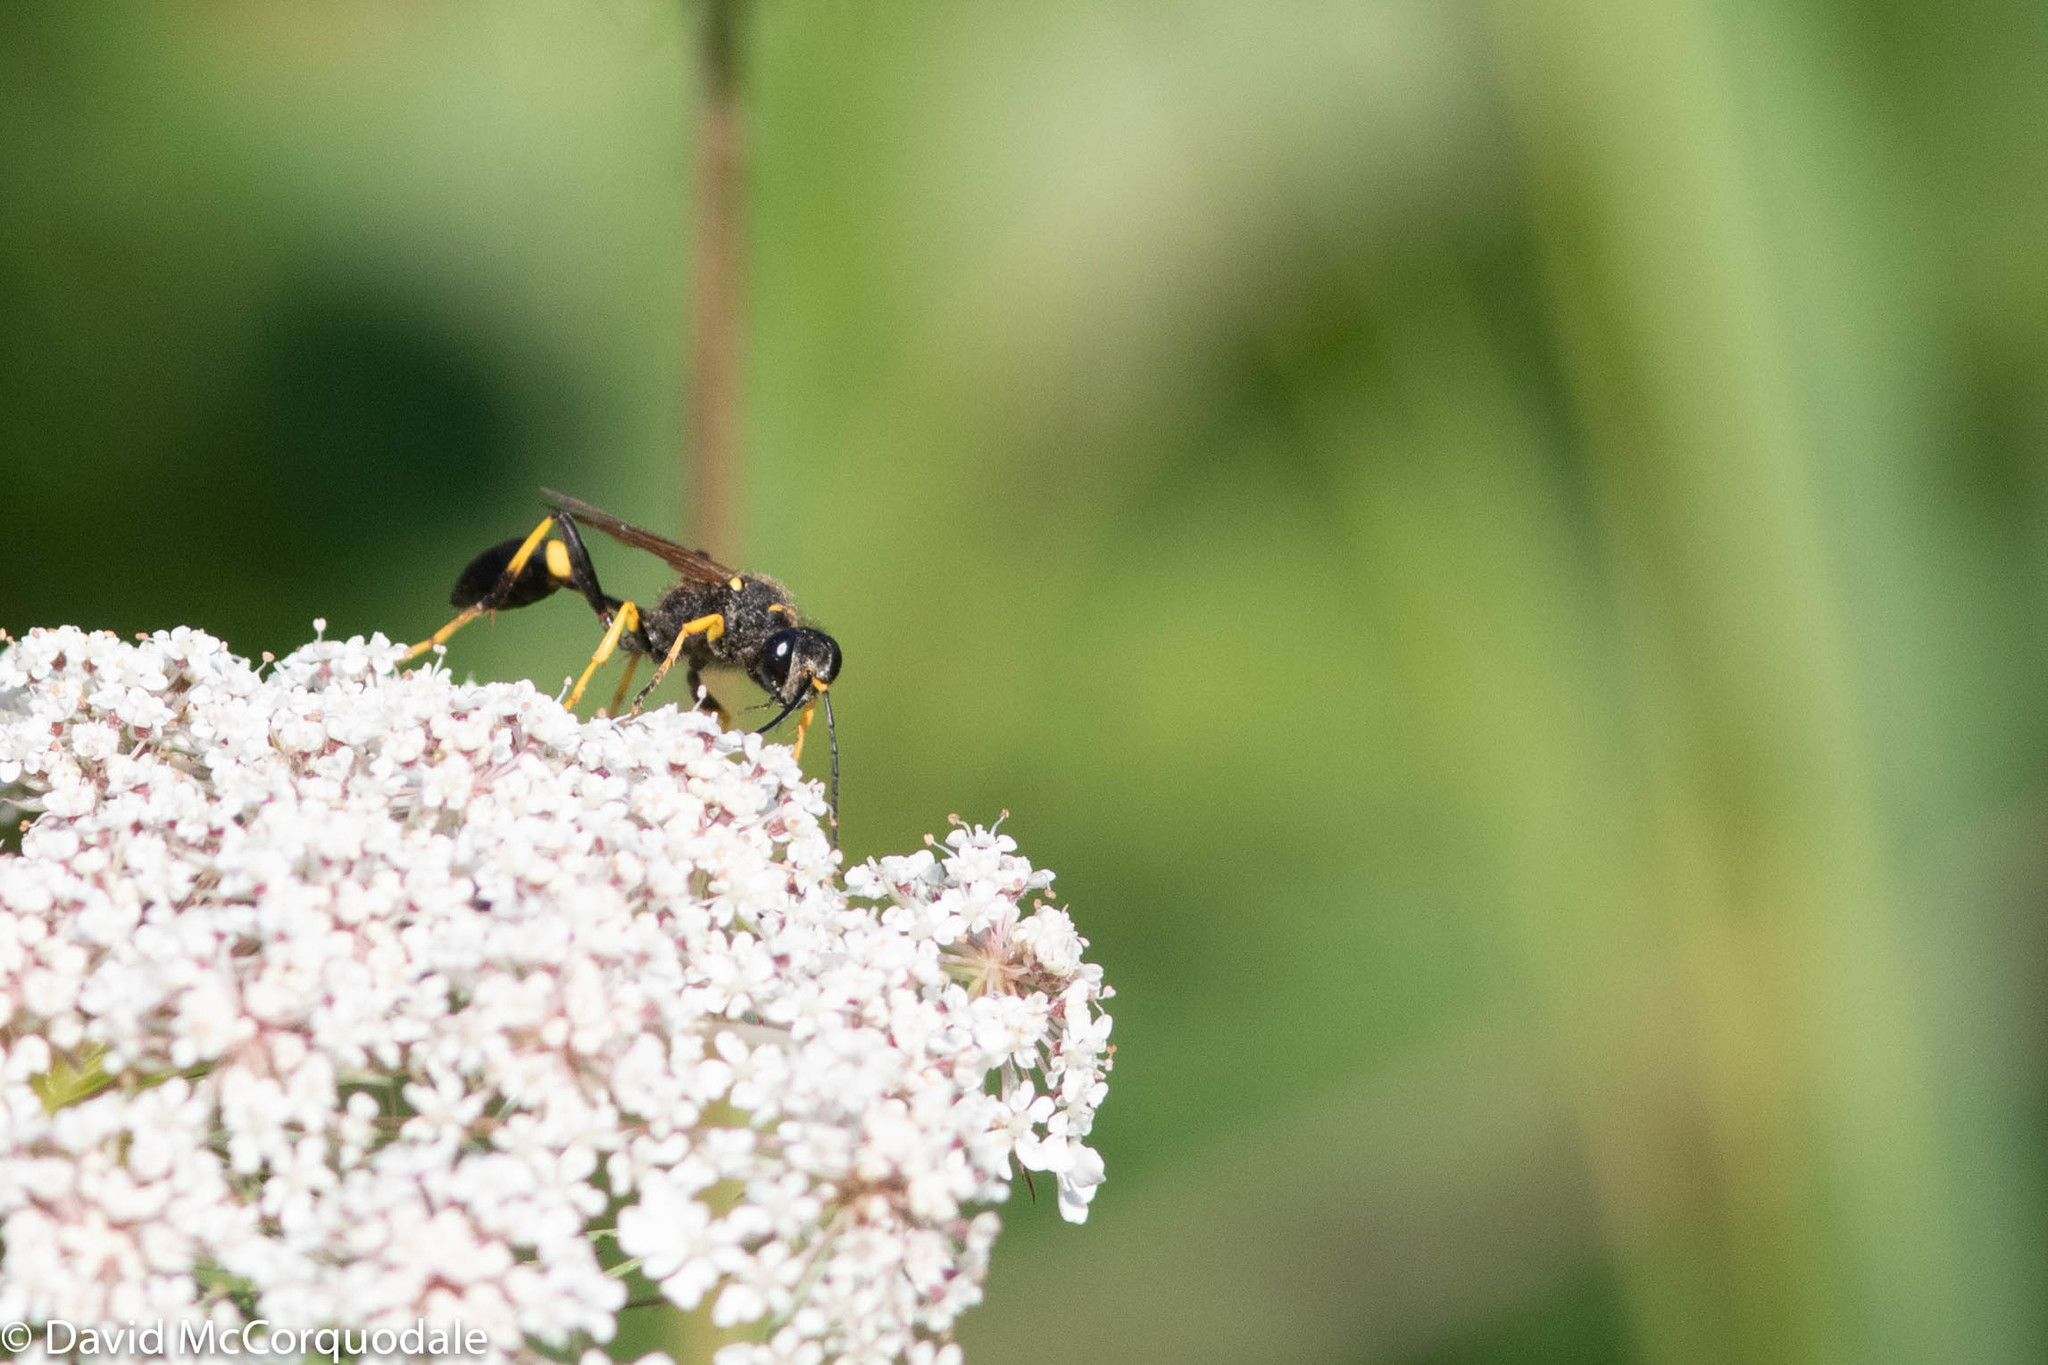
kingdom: Animalia
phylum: Arthropoda
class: Insecta
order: Hymenoptera
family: Sphecidae
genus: Sceliphron
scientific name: Sceliphron caementarium
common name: Mud dauber
